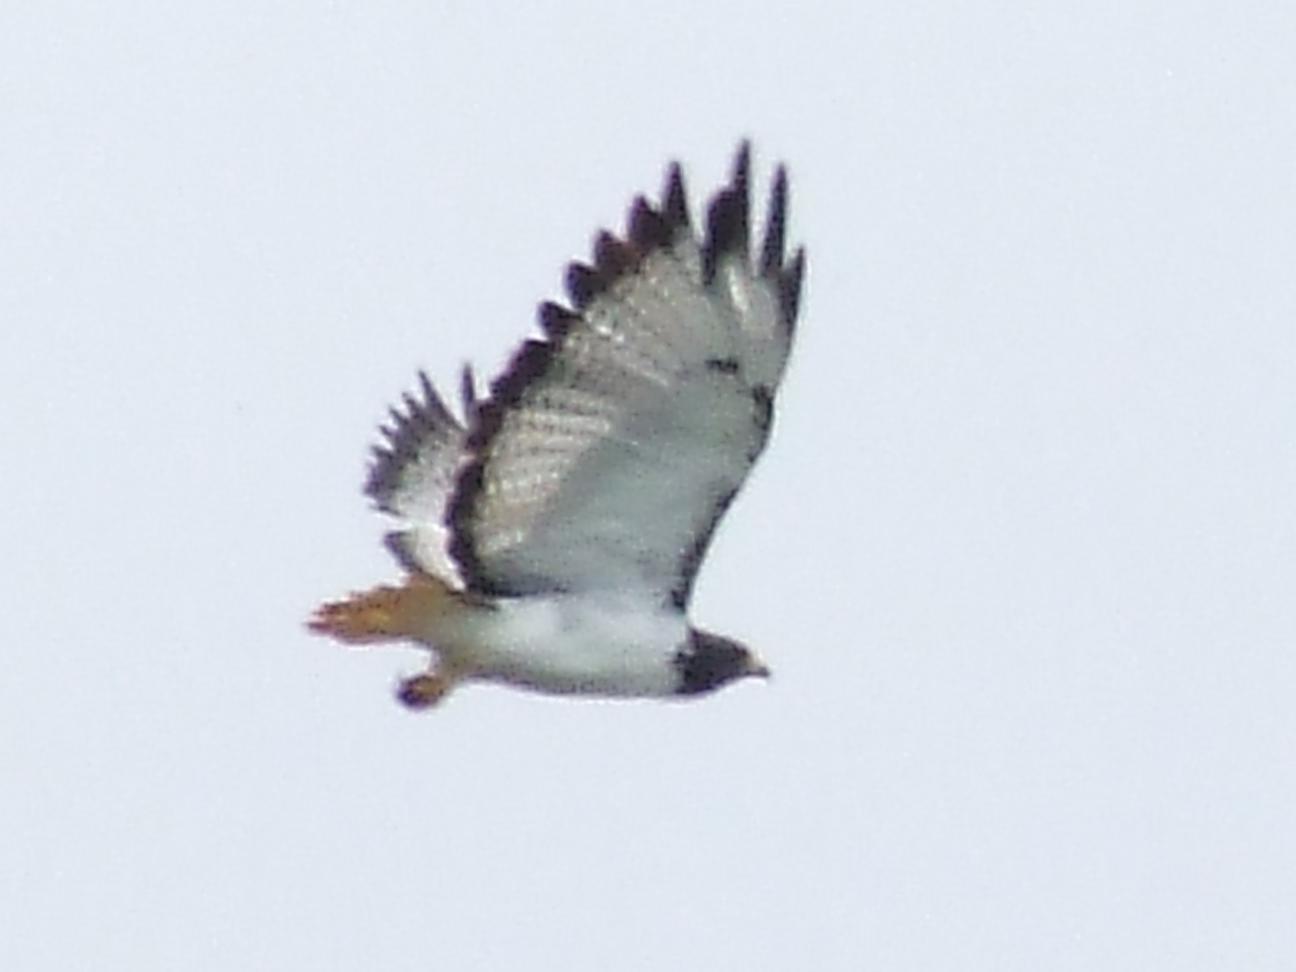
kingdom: Animalia
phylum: Chordata
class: Aves
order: Accipitriformes
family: Accipitridae
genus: Buteo
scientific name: Buteo augur
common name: Augur buzzard
